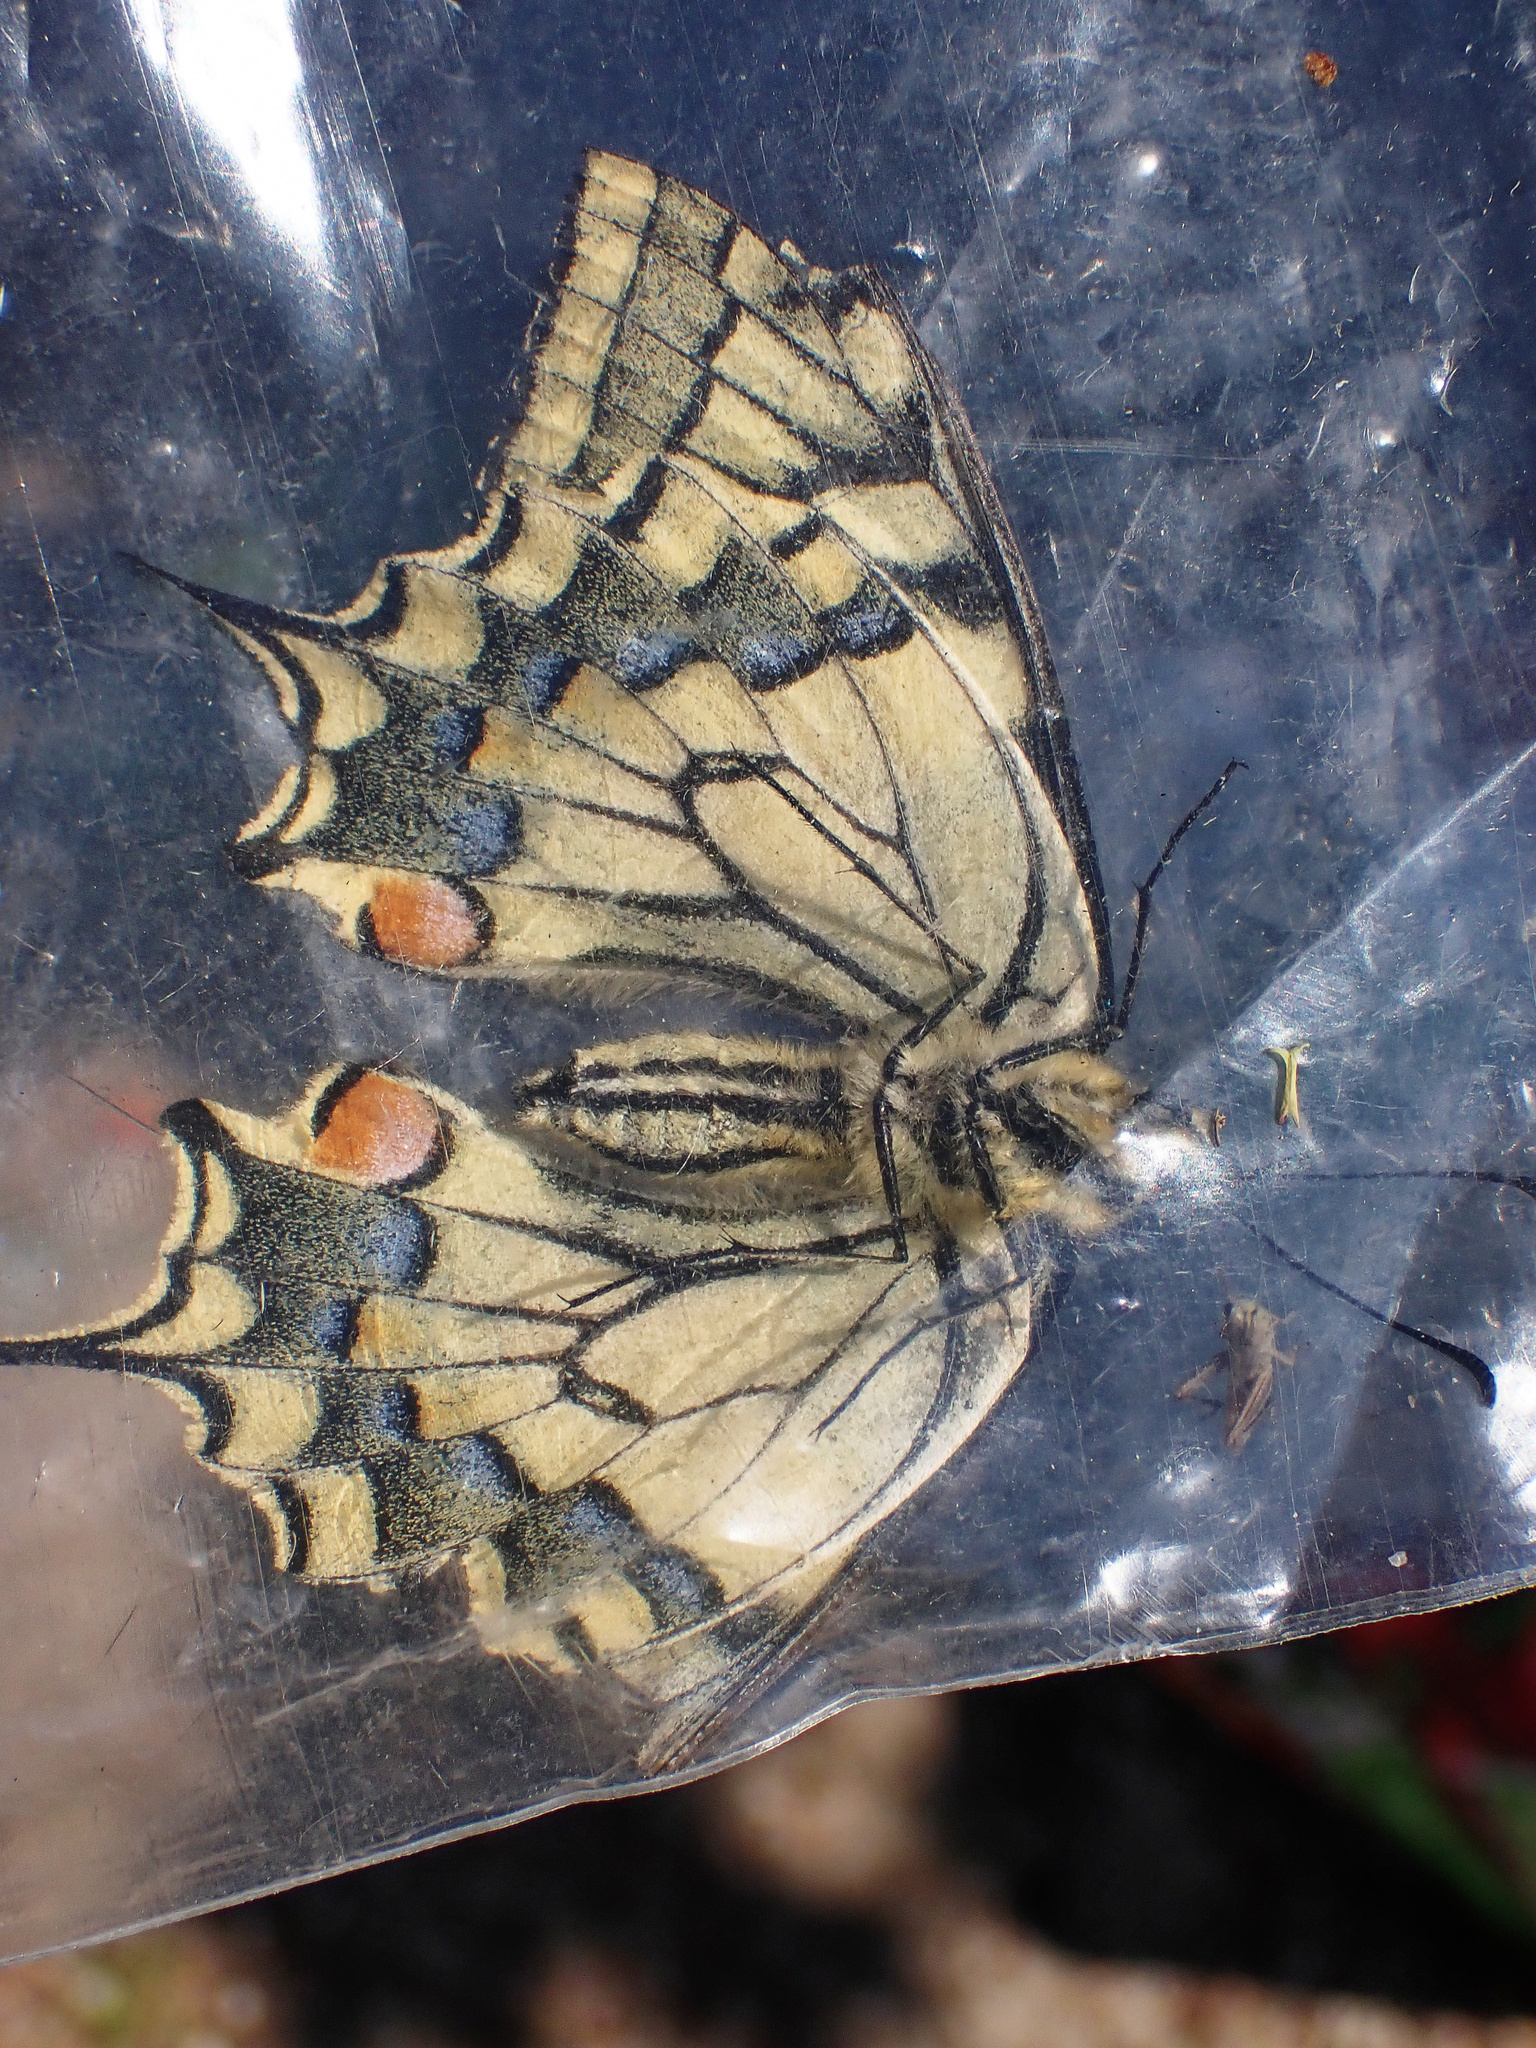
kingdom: Animalia
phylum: Arthropoda
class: Insecta
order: Lepidoptera
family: Papilionidae
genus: Papilio
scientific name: Papilio machaon
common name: Swallowtail
